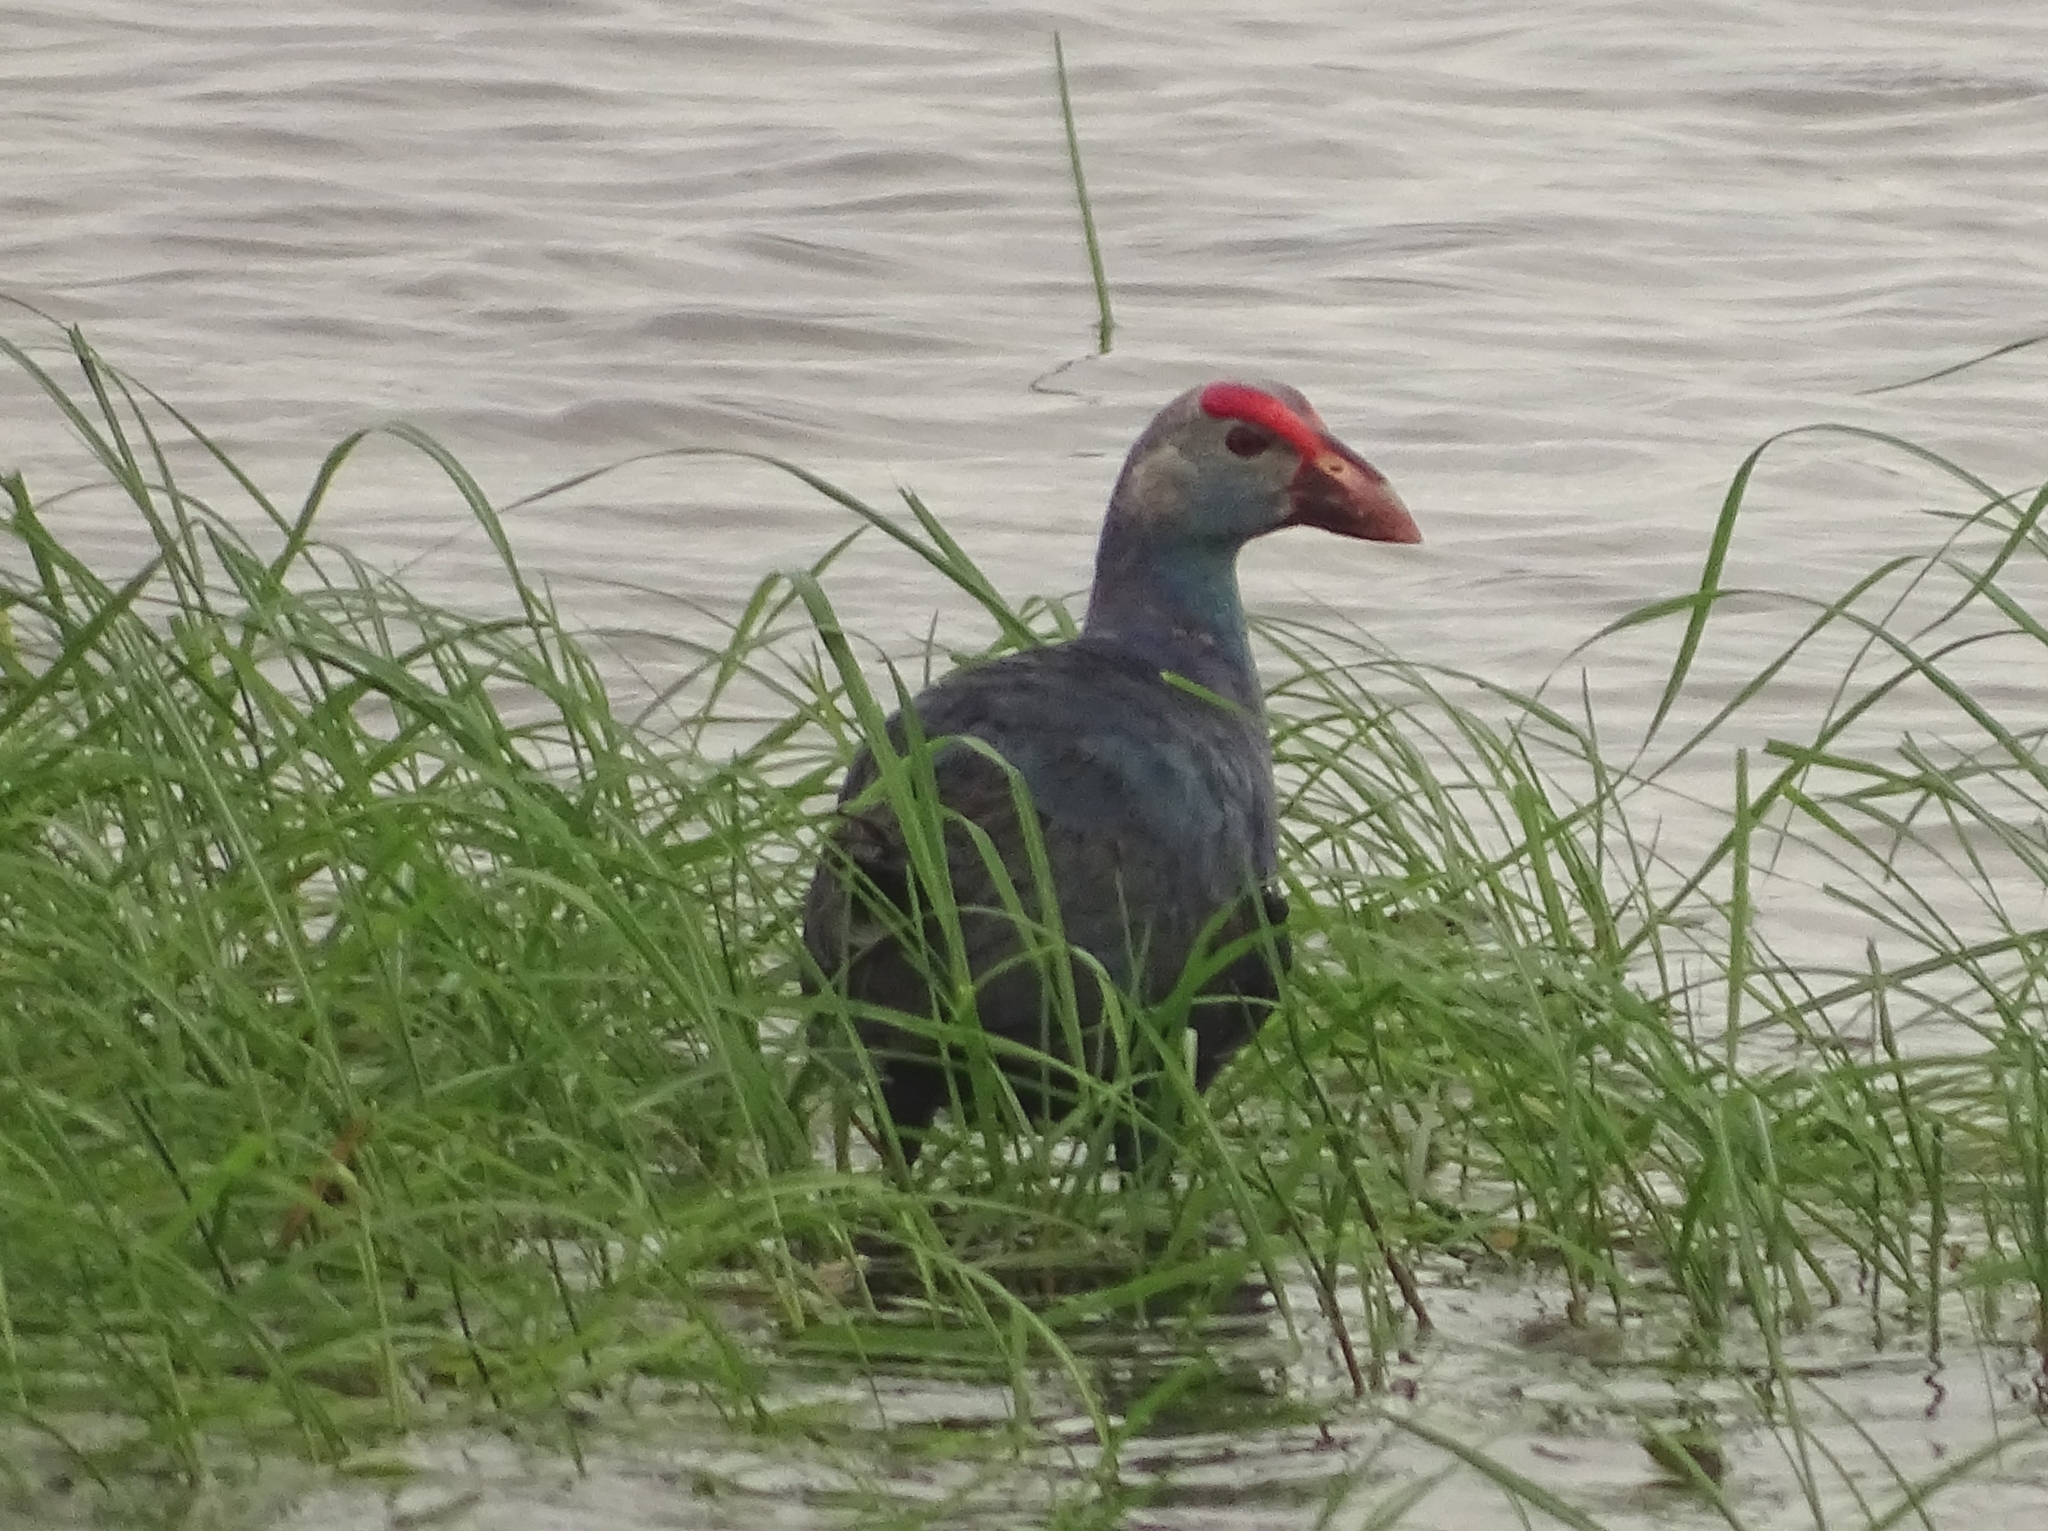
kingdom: Animalia
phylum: Chordata
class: Aves
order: Gruiformes
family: Rallidae
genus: Porphyrio
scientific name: Porphyrio porphyrio
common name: Purple swamphen
